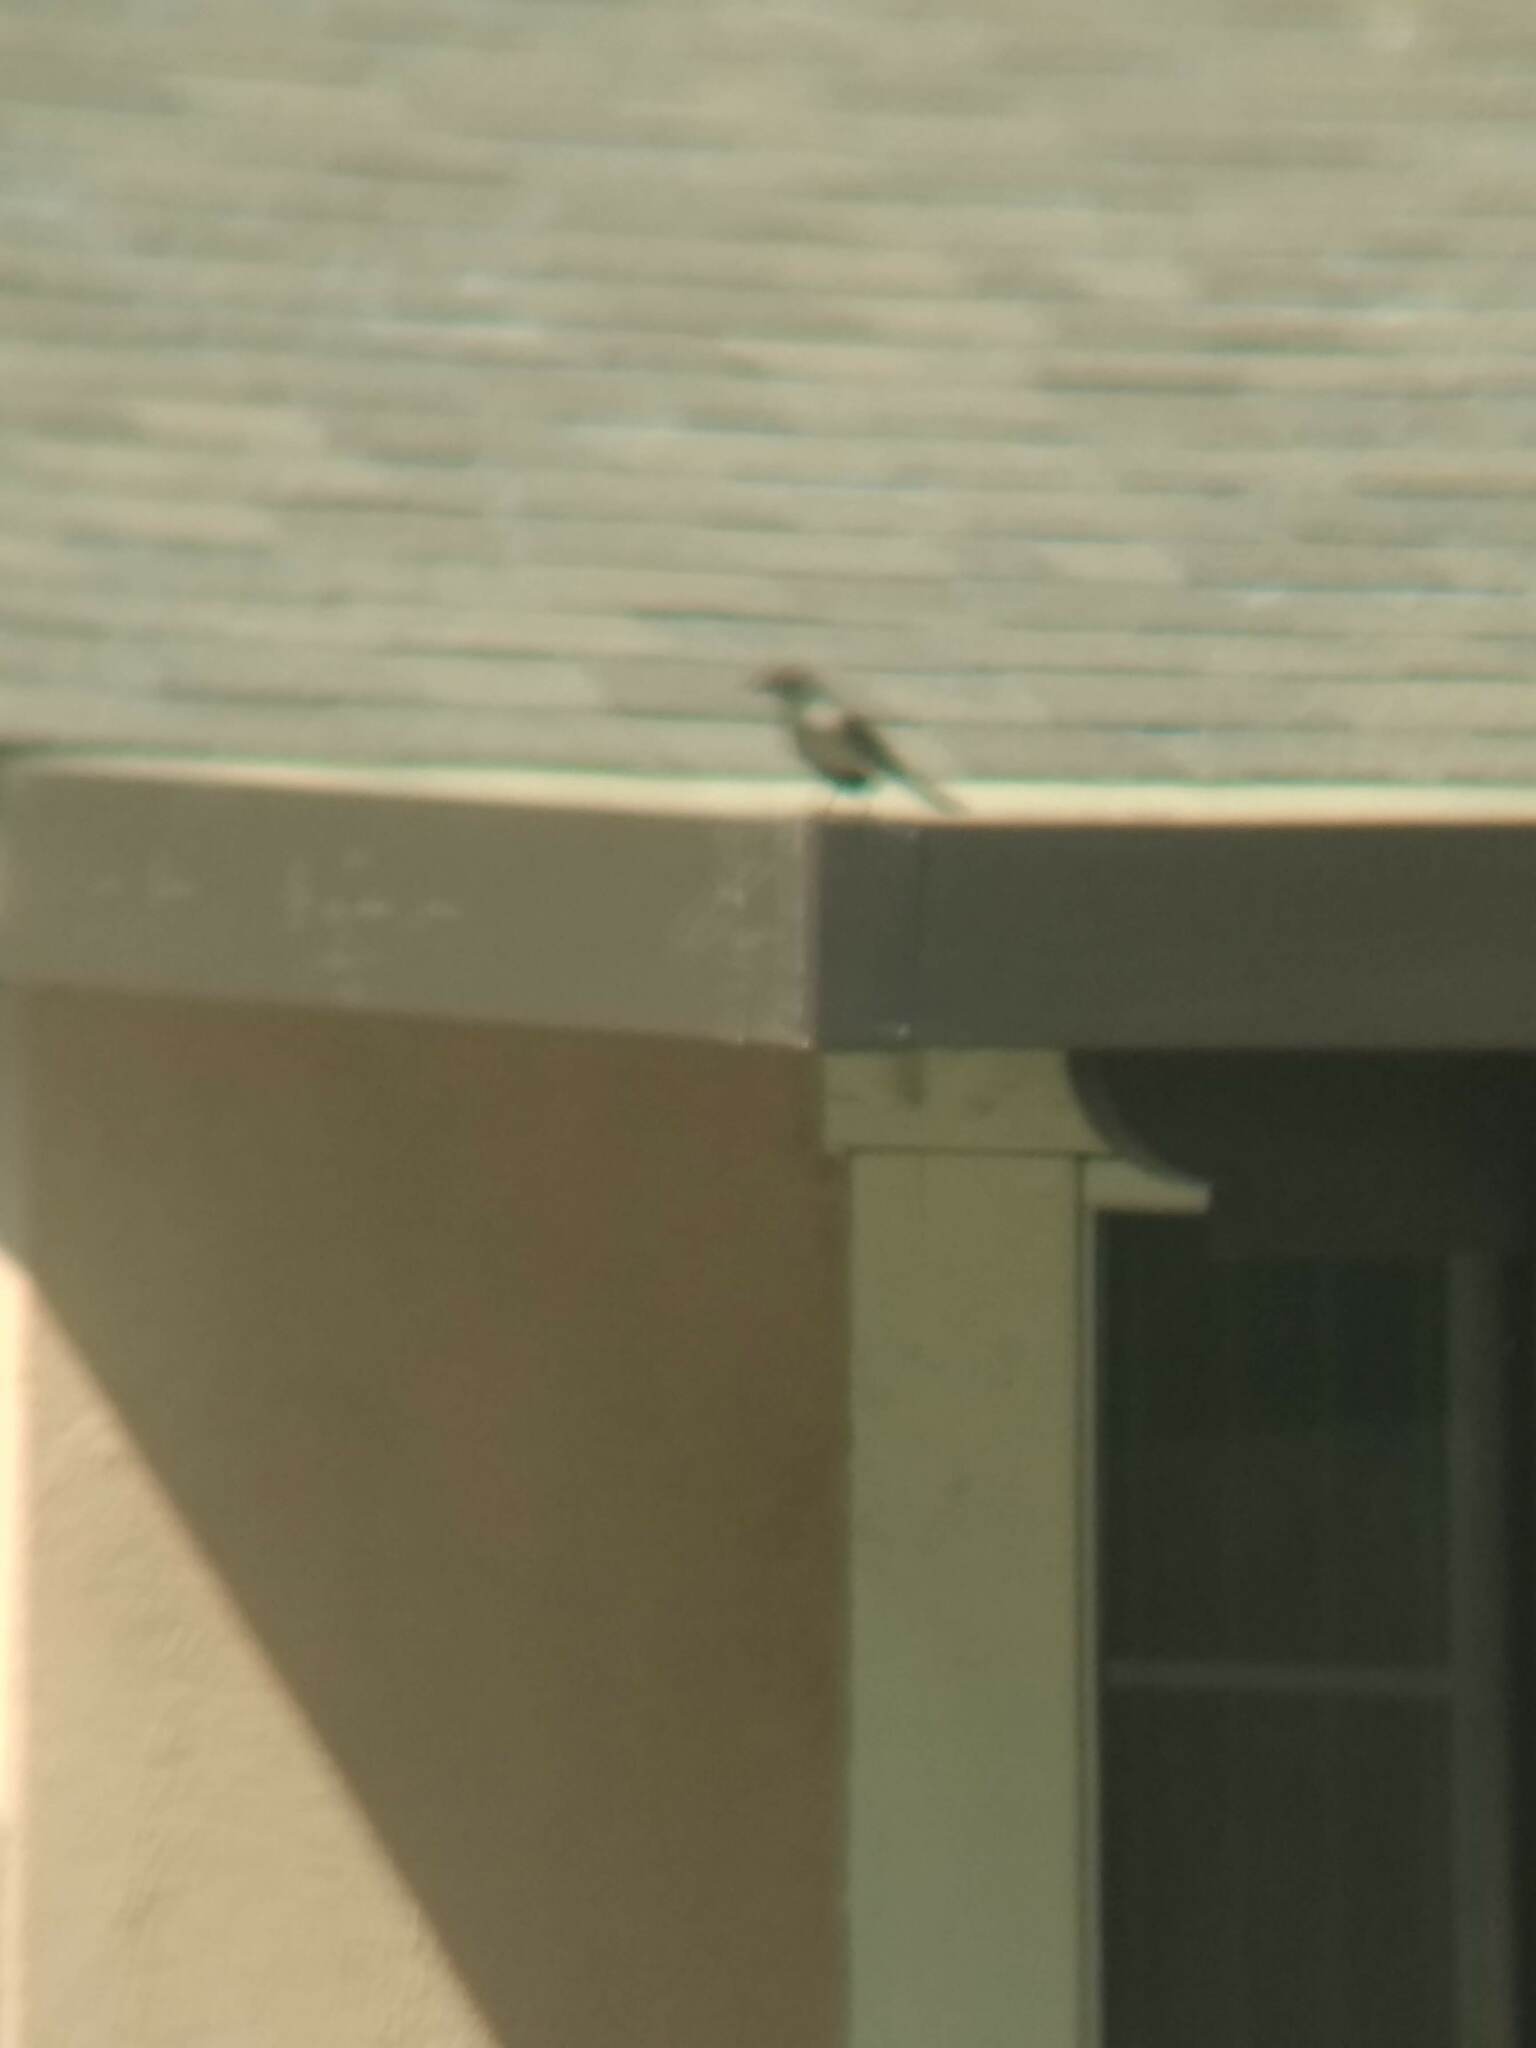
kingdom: Animalia
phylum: Chordata
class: Aves
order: Passeriformes
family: Mimidae
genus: Mimus
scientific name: Mimus polyglottos
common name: Northern mockingbird
